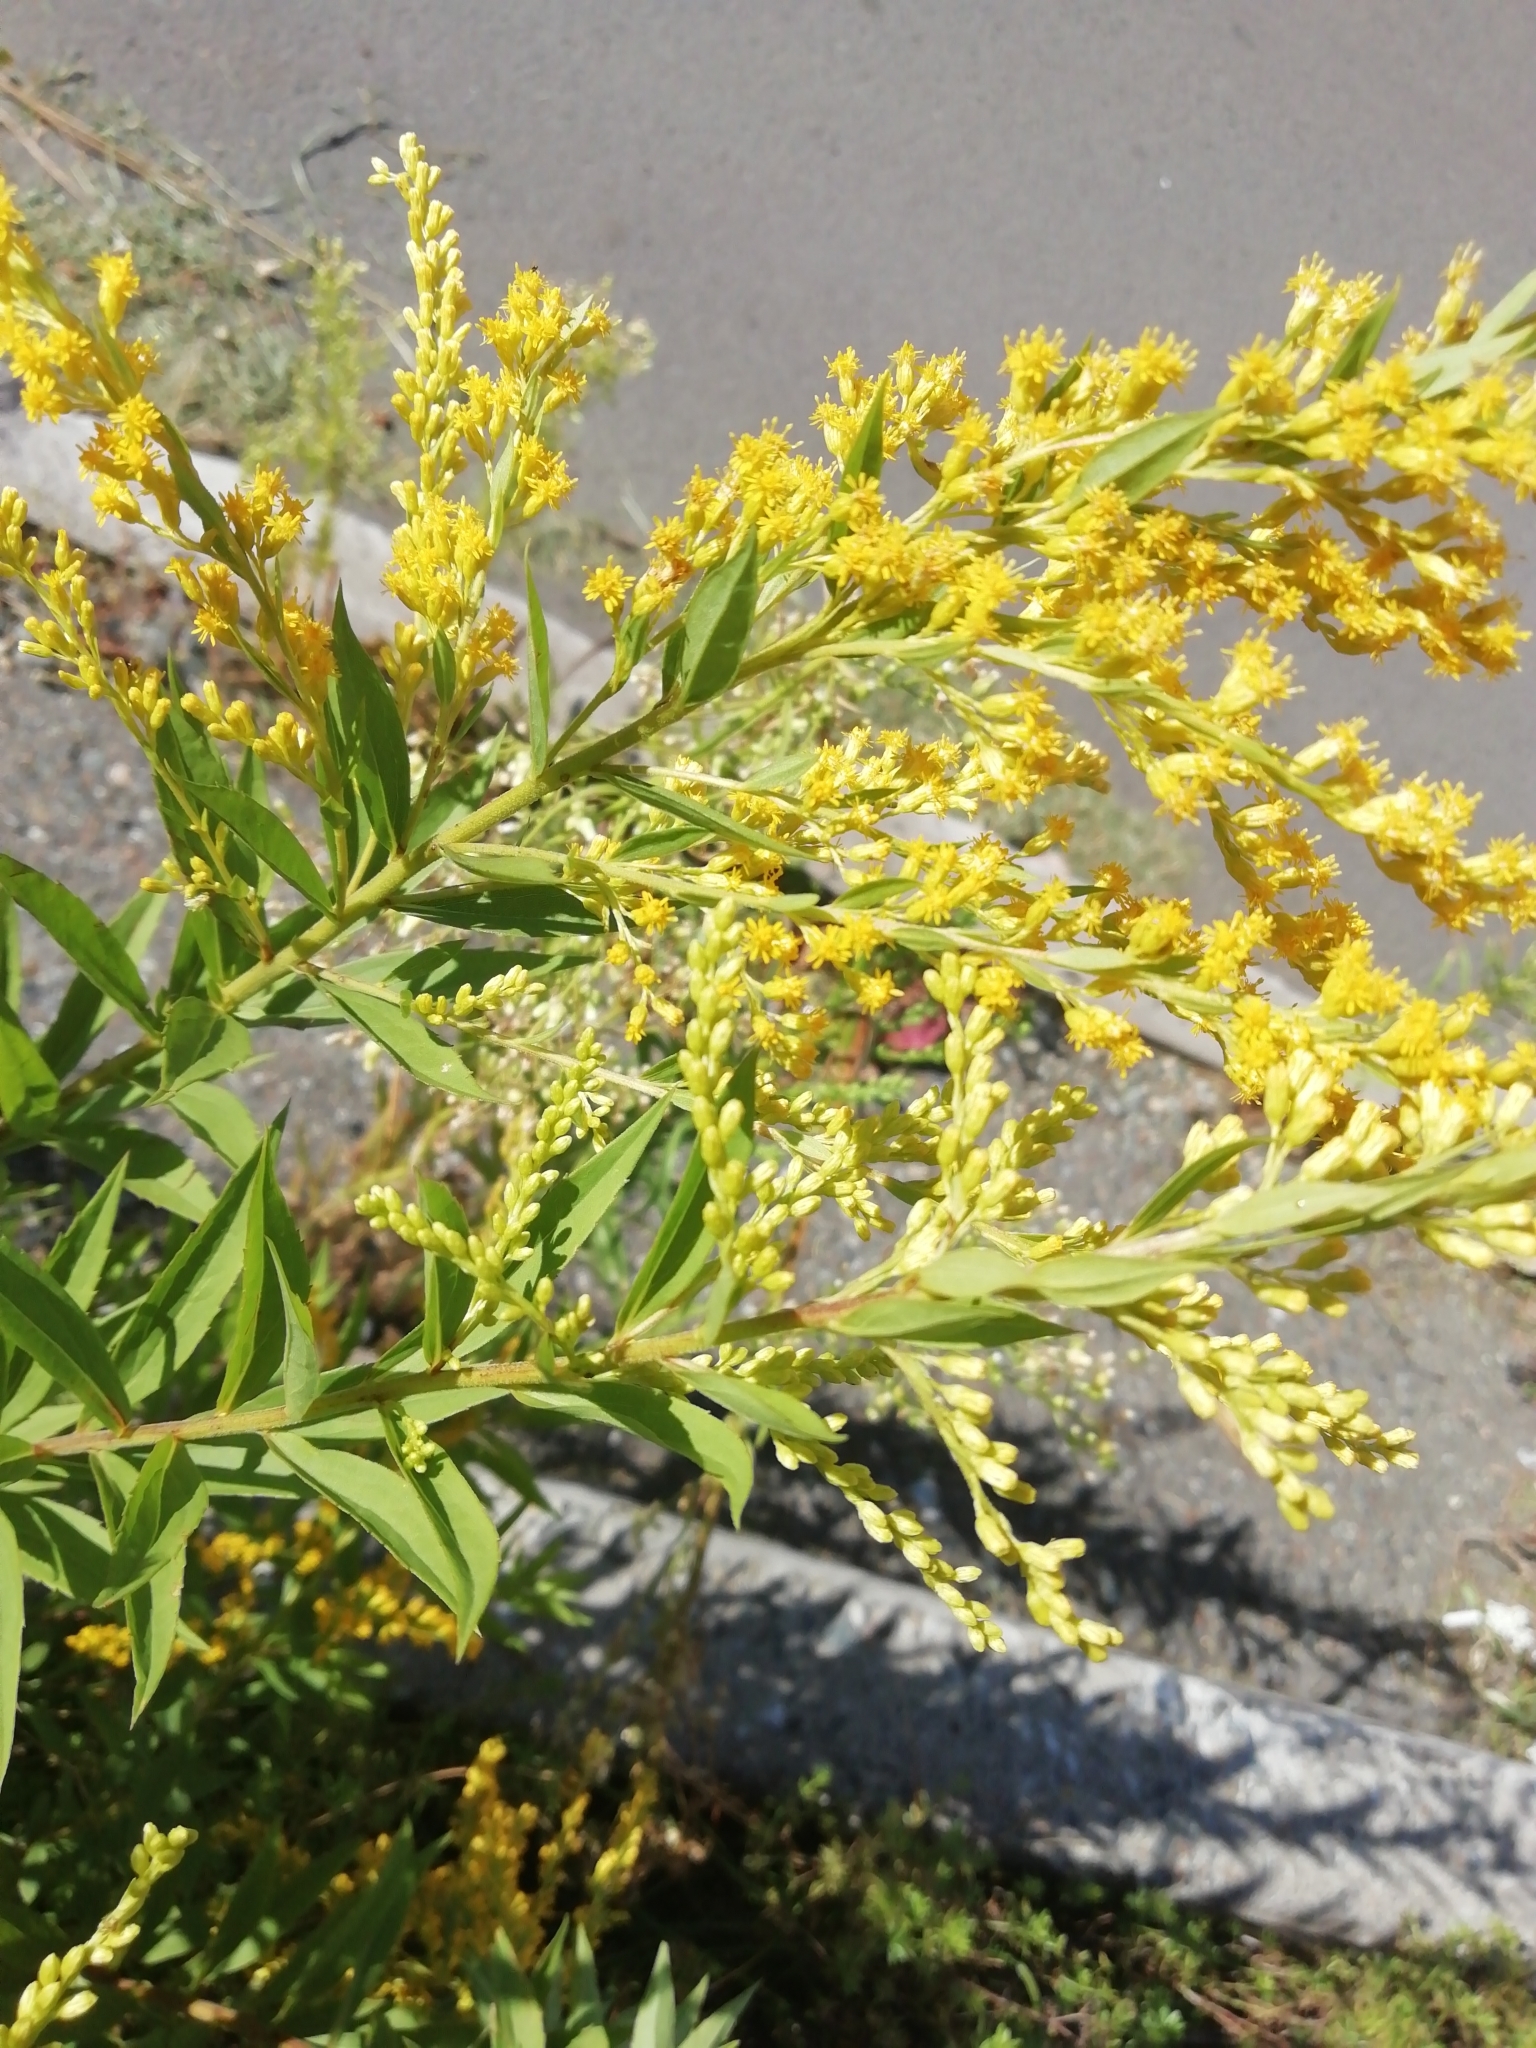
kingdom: Plantae
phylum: Tracheophyta
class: Magnoliopsida
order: Asterales
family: Asteraceae
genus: Solidago
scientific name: Solidago canadensis
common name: Canada goldenrod
